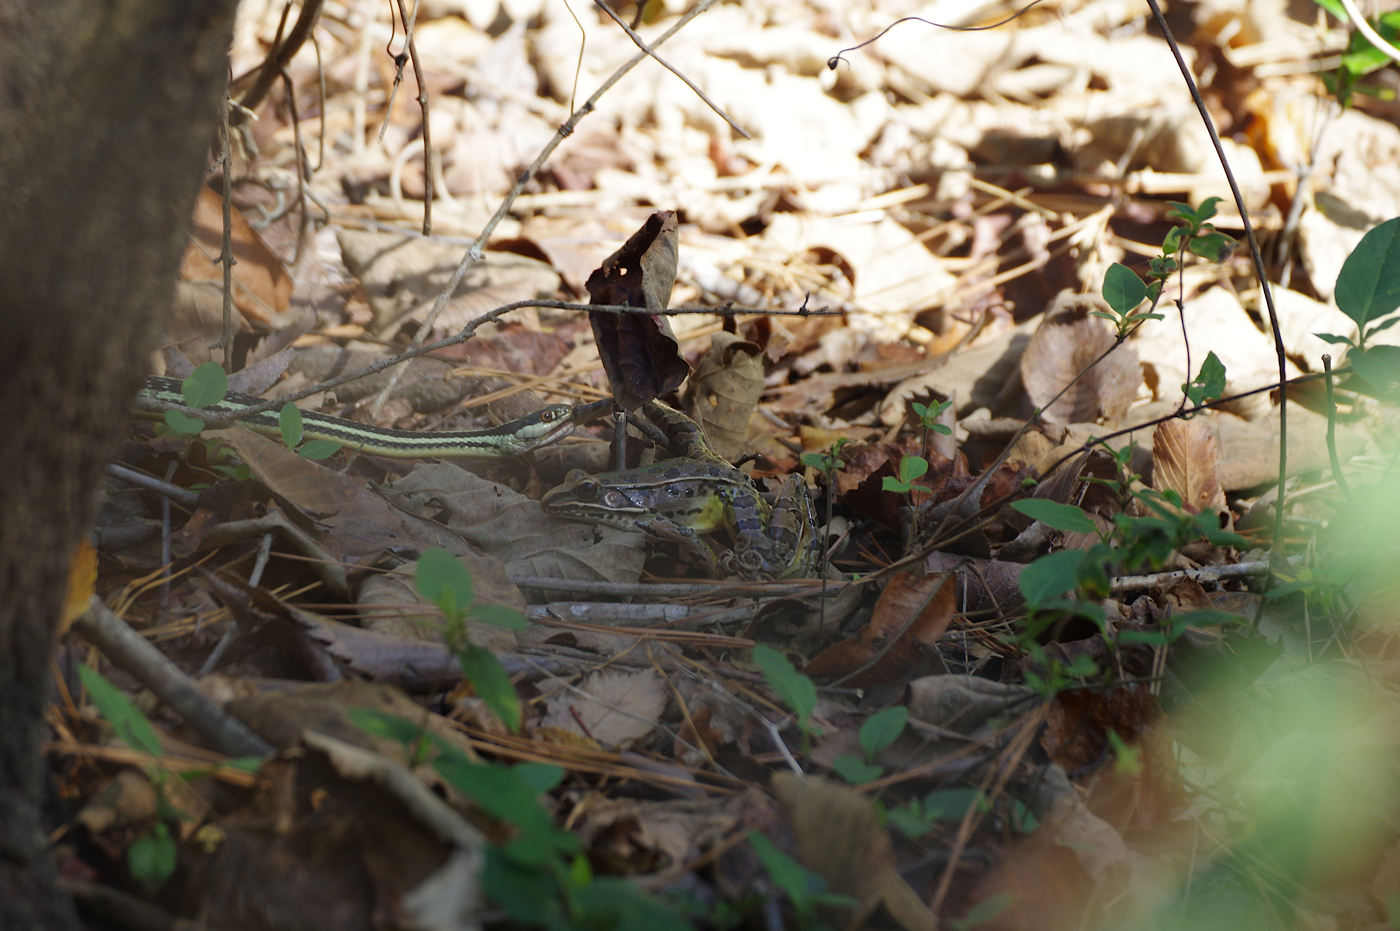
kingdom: Animalia
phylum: Chordata
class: Amphibia
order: Anura
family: Ranidae
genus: Lithobates
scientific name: Lithobates sphenocephalus
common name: Southern leopard frog
